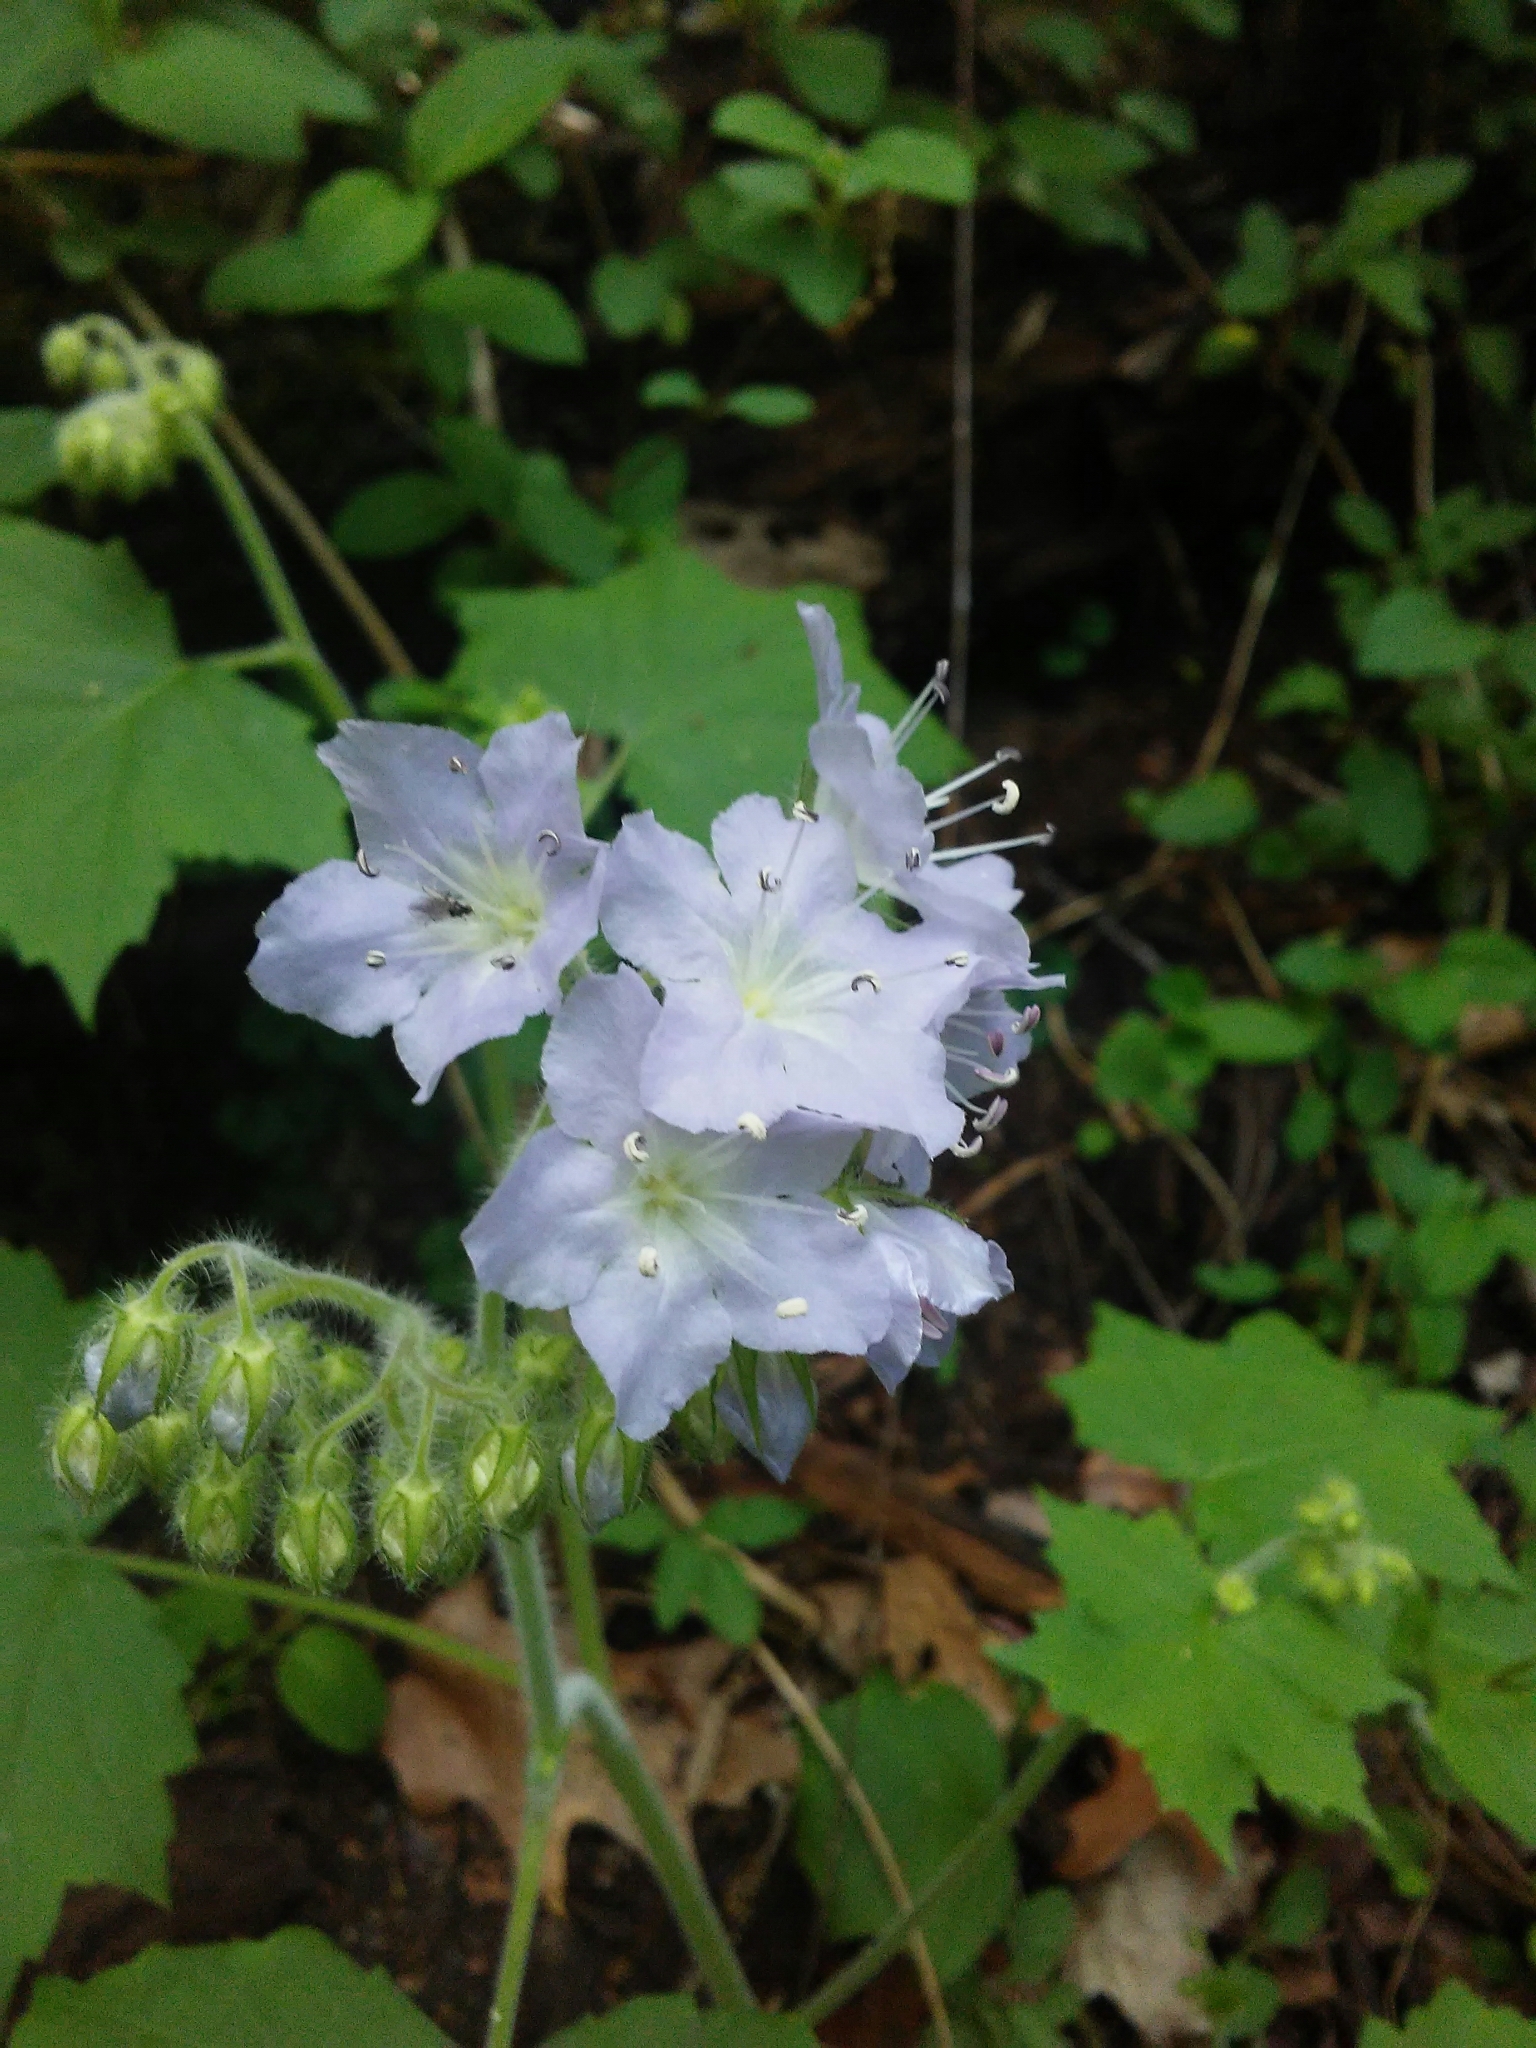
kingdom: Plantae
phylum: Tracheophyta
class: Magnoliopsida
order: Boraginales
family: Hydrophyllaceae
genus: Hydrophyllum
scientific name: Hydrophyllum appendiculatum
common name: Appendaged waterleaf
